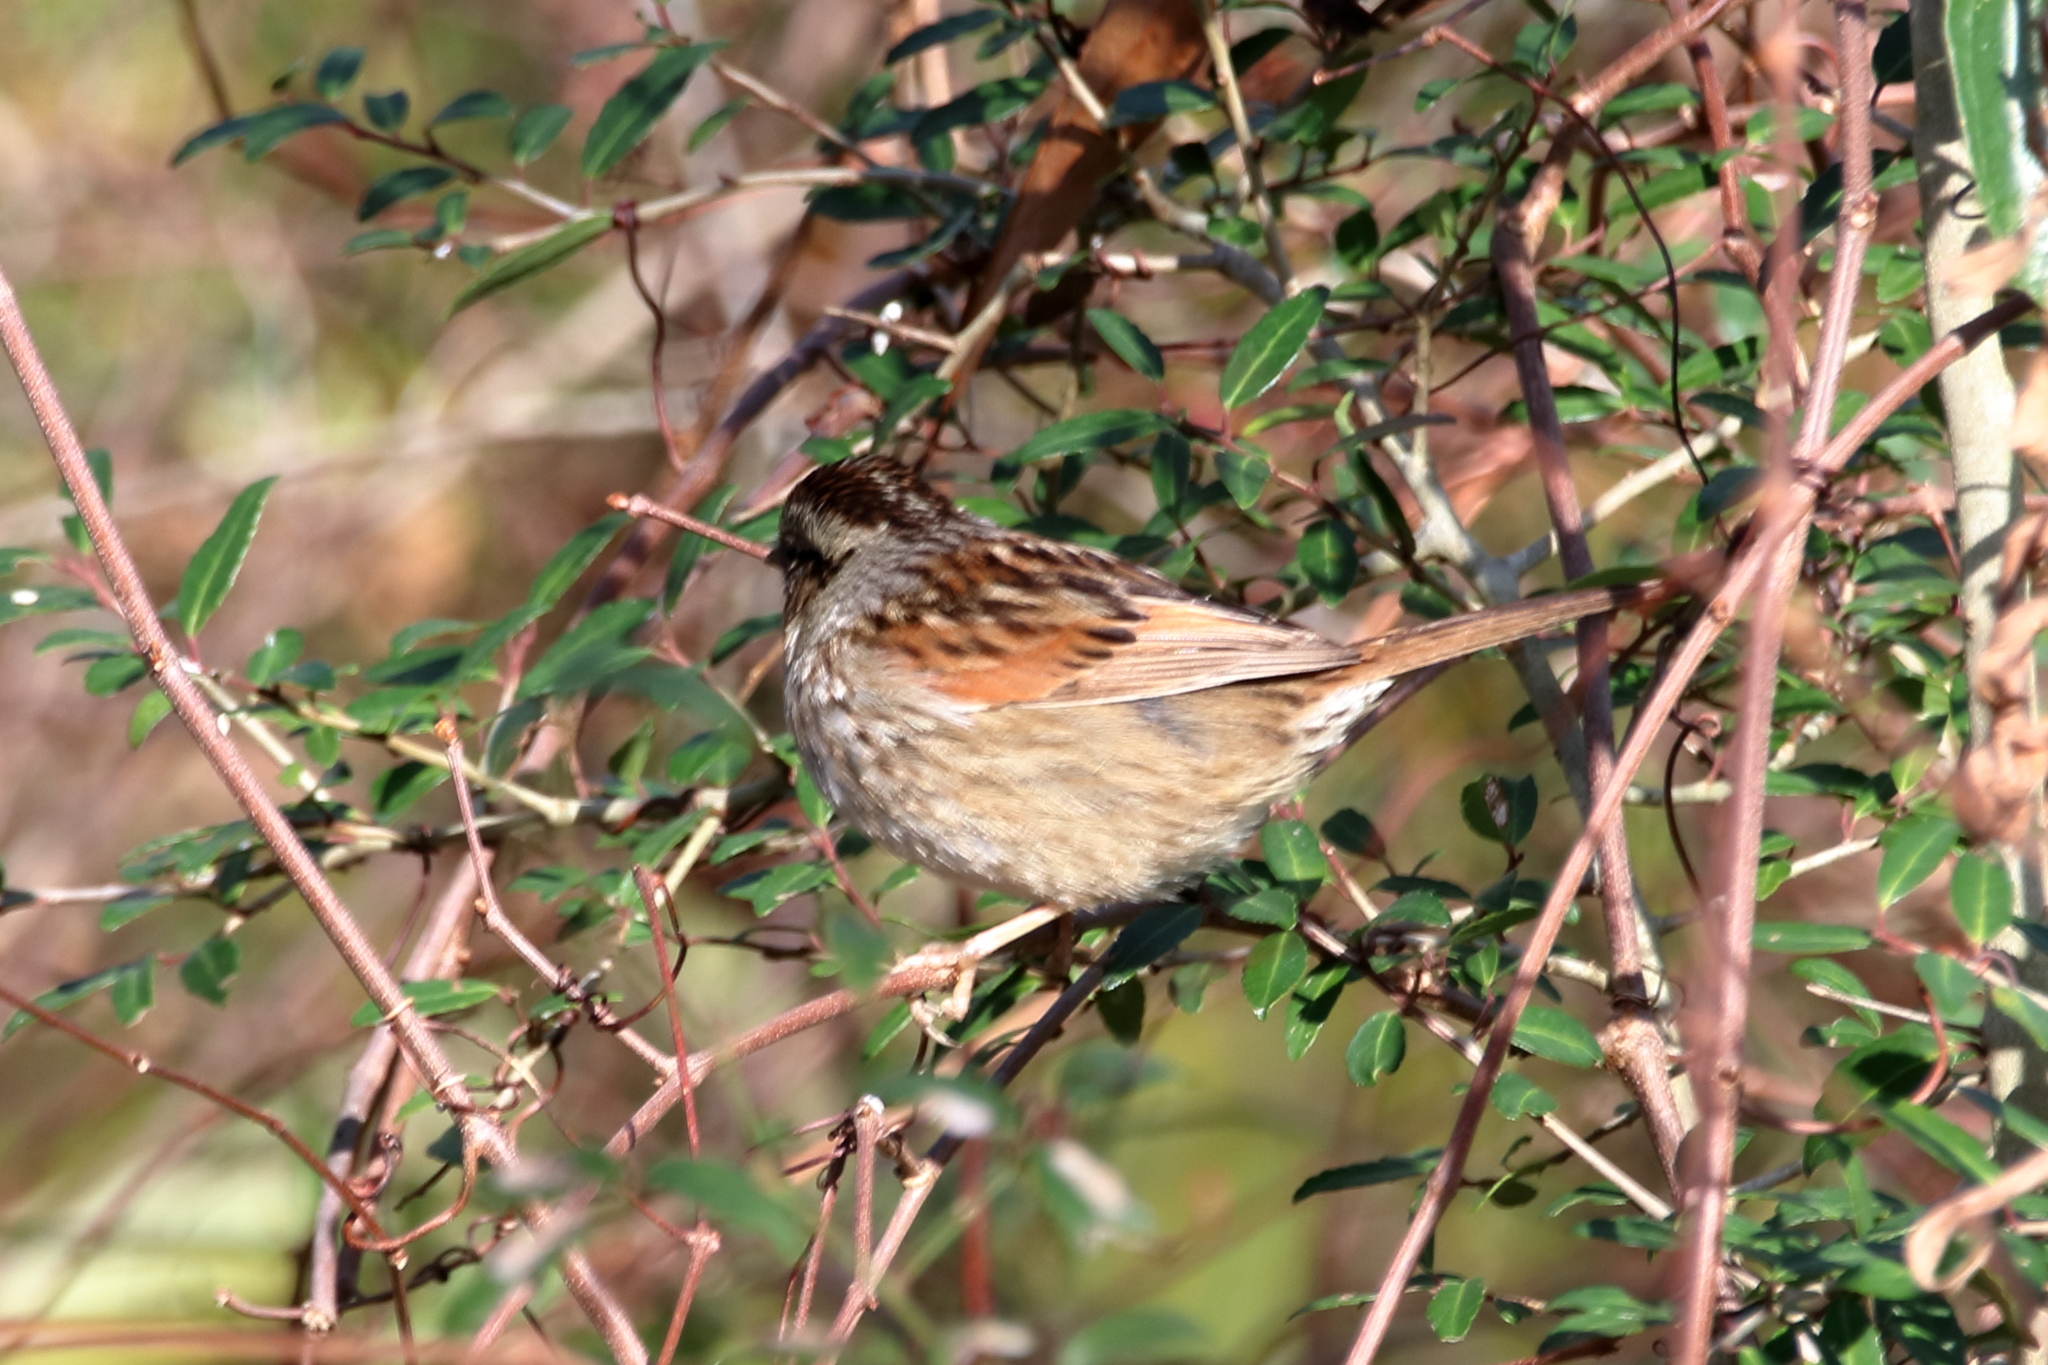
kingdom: Animalia
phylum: Chordata
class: Aves
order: Passeriformes
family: Passerellidae
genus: Melospiza
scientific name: Melospiza georgiana
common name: Swamp sparrow
